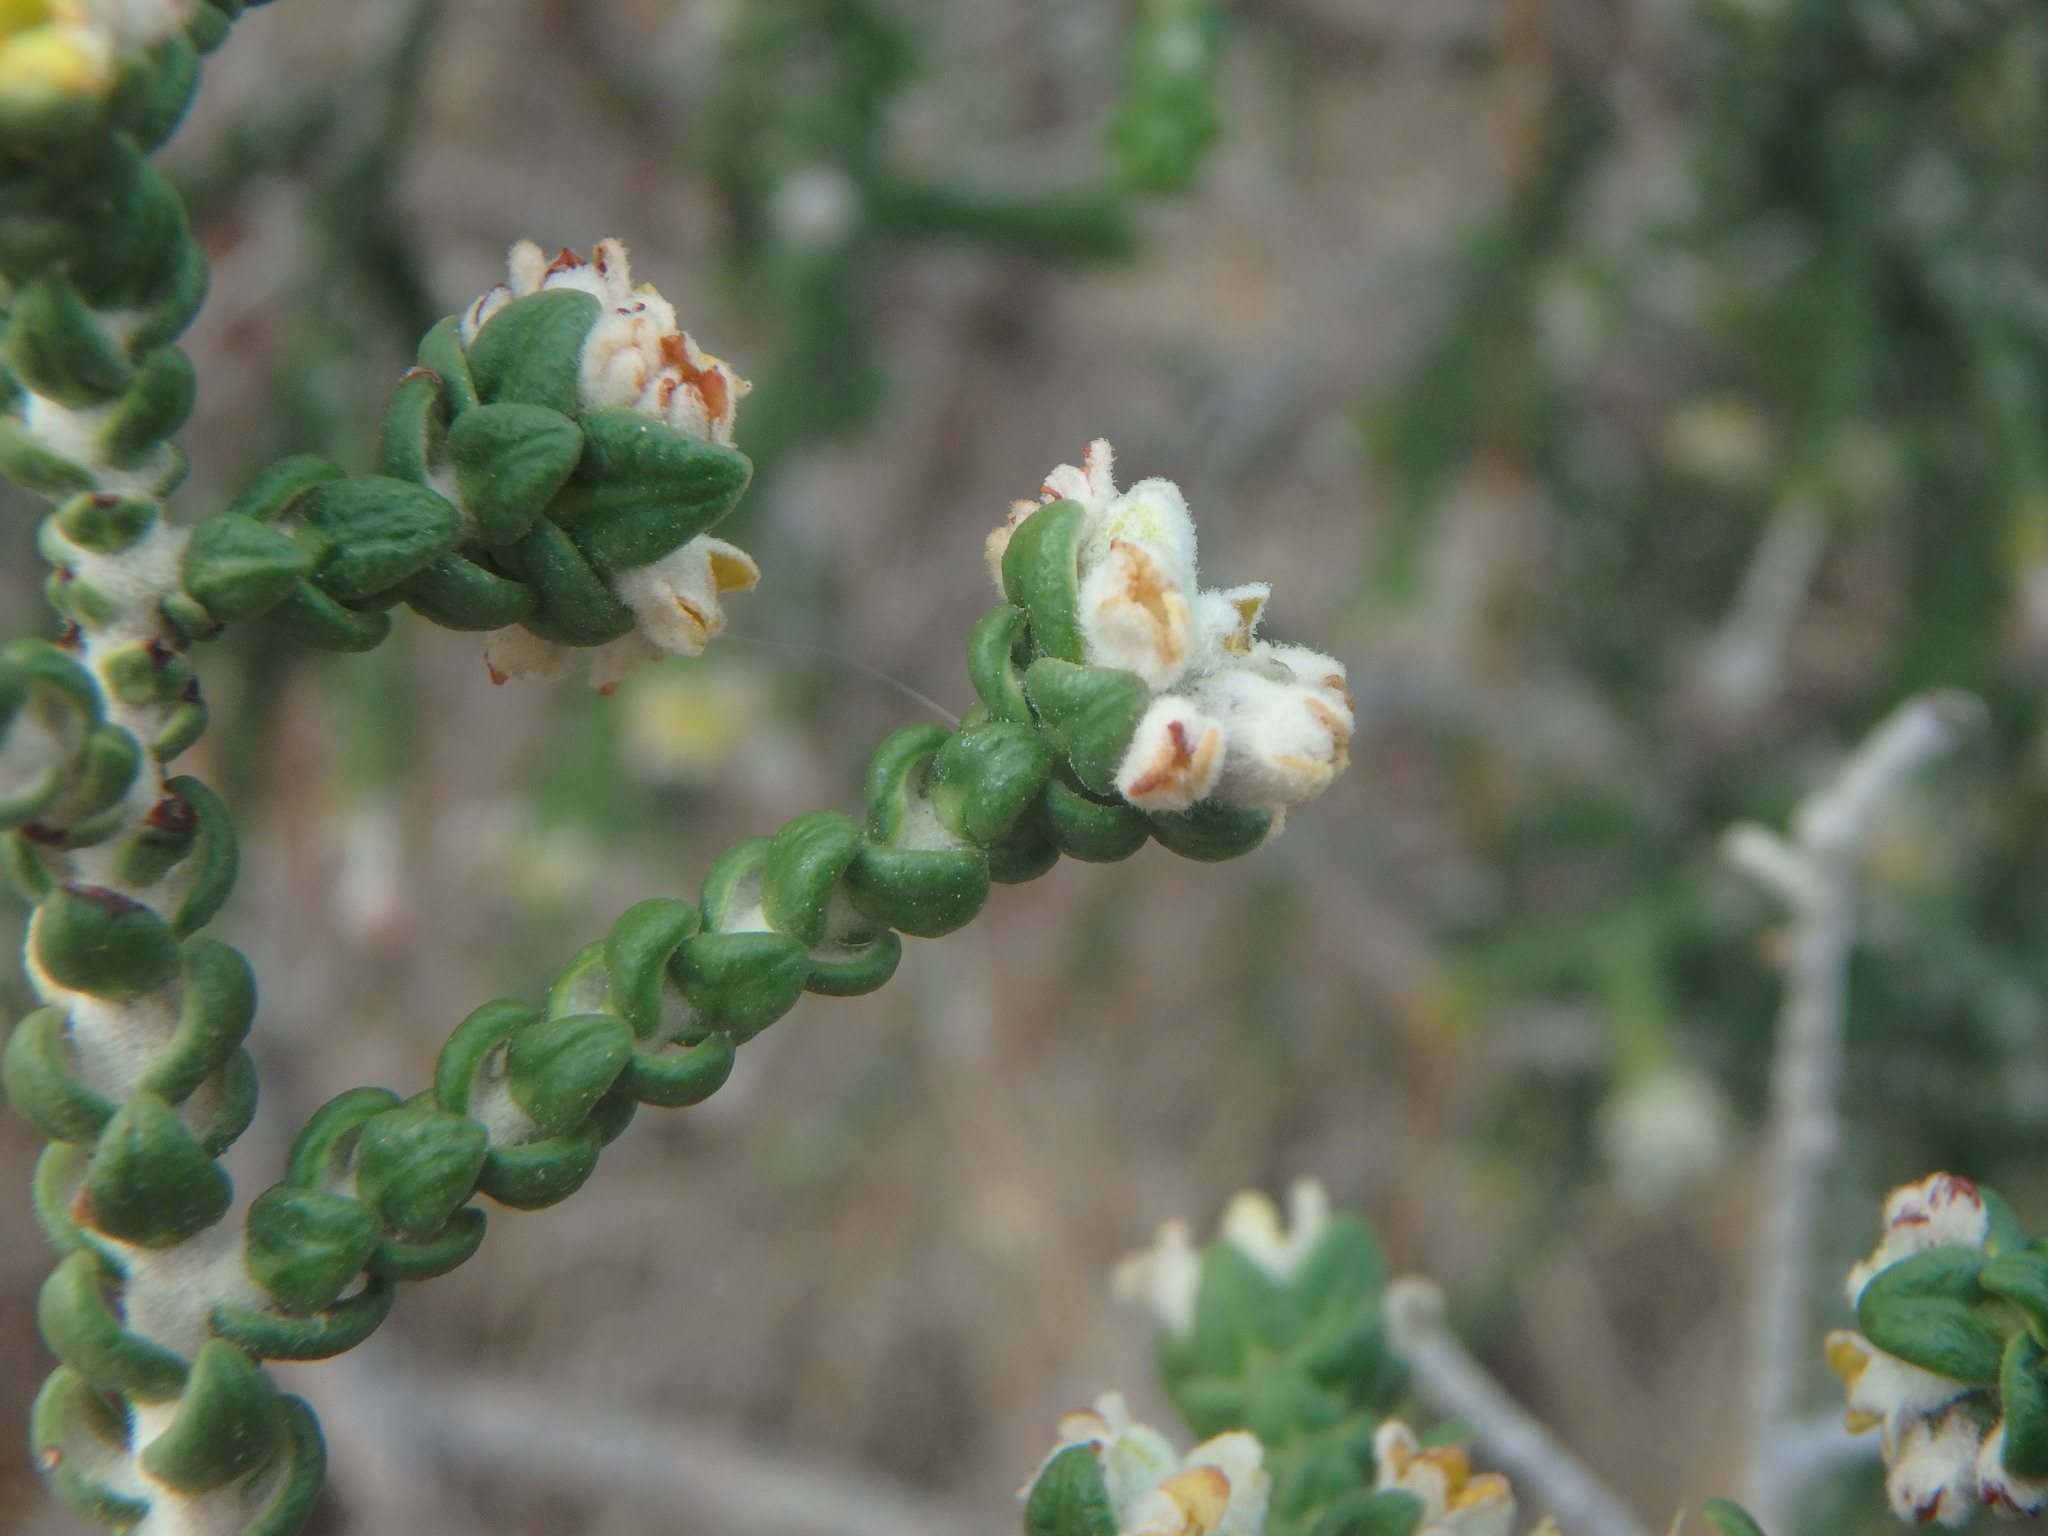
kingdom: Plantae
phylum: Tracheophyta
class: Magnoliopsida
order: Malvales
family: Thymelaeaceae
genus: Thymelaea
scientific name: Thymelaea hirsuta
